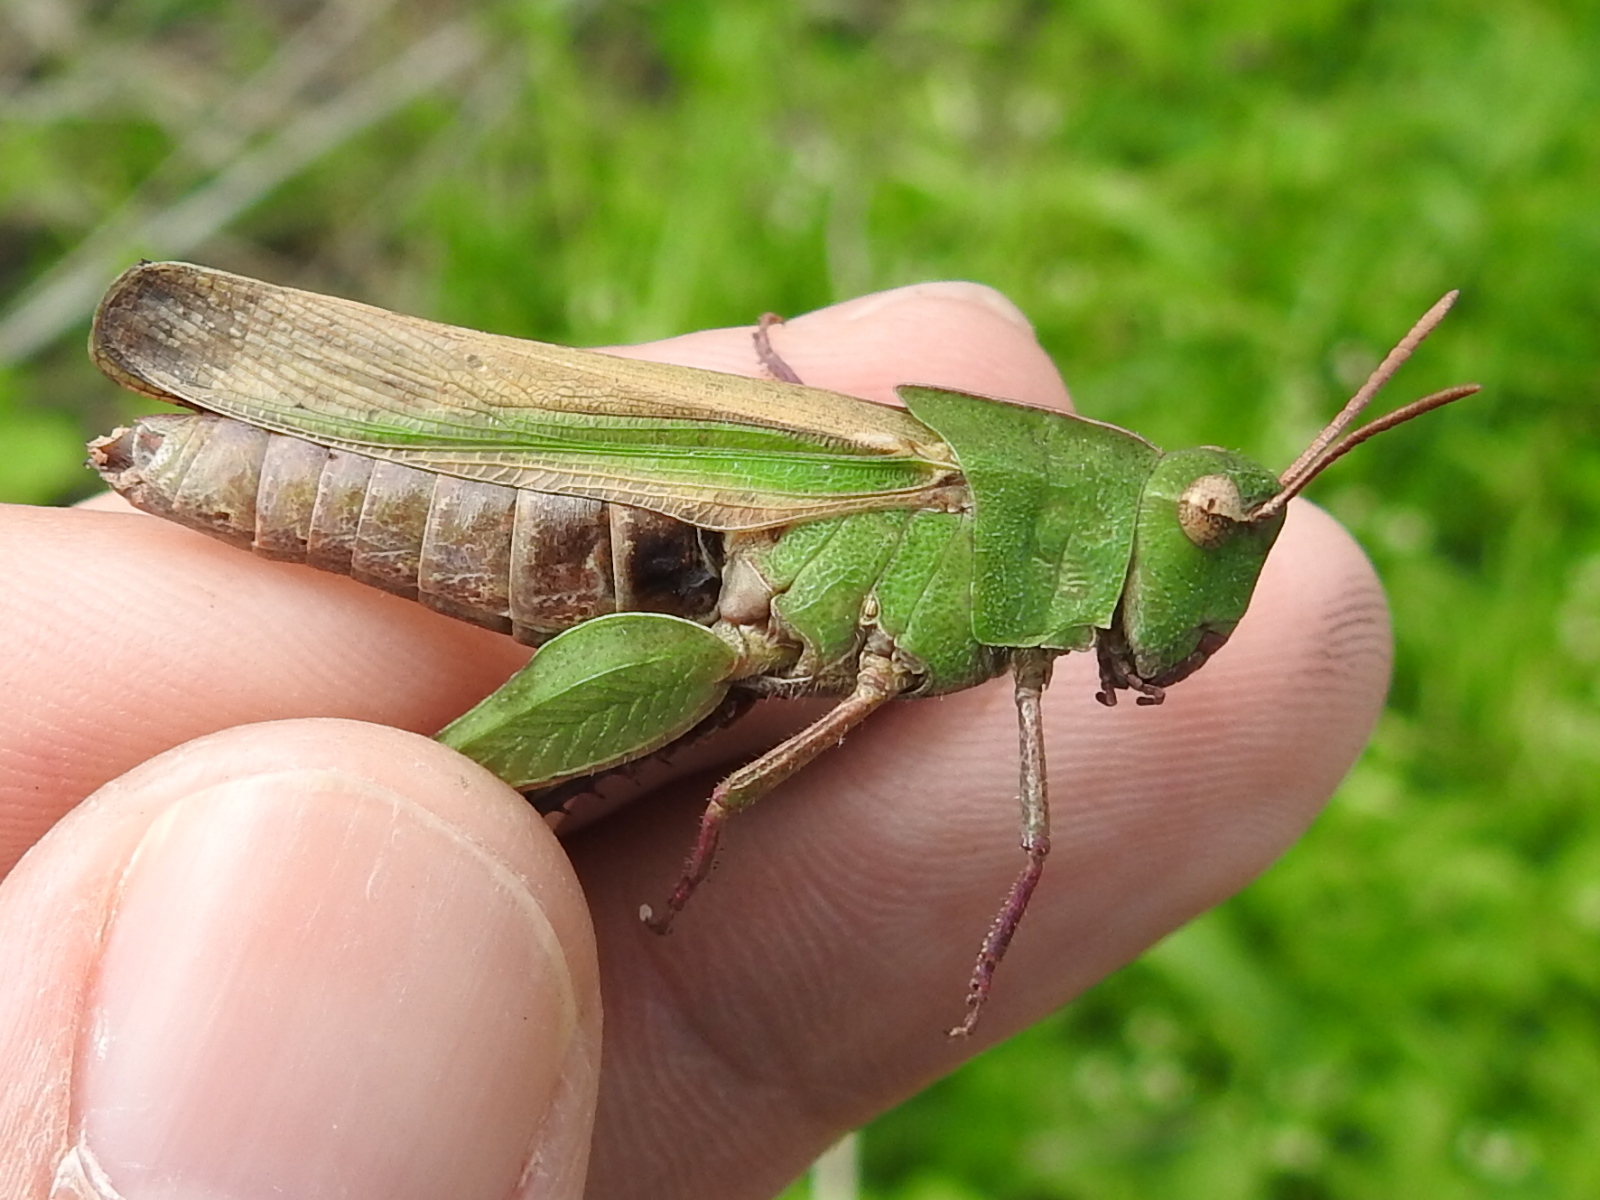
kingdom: Animalia
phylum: Arthropoda
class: Insecta
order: Orthoptera
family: Acrididae
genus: Chortophaga
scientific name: Chortophaga viridifasciata
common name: Green-striped grasshopper
